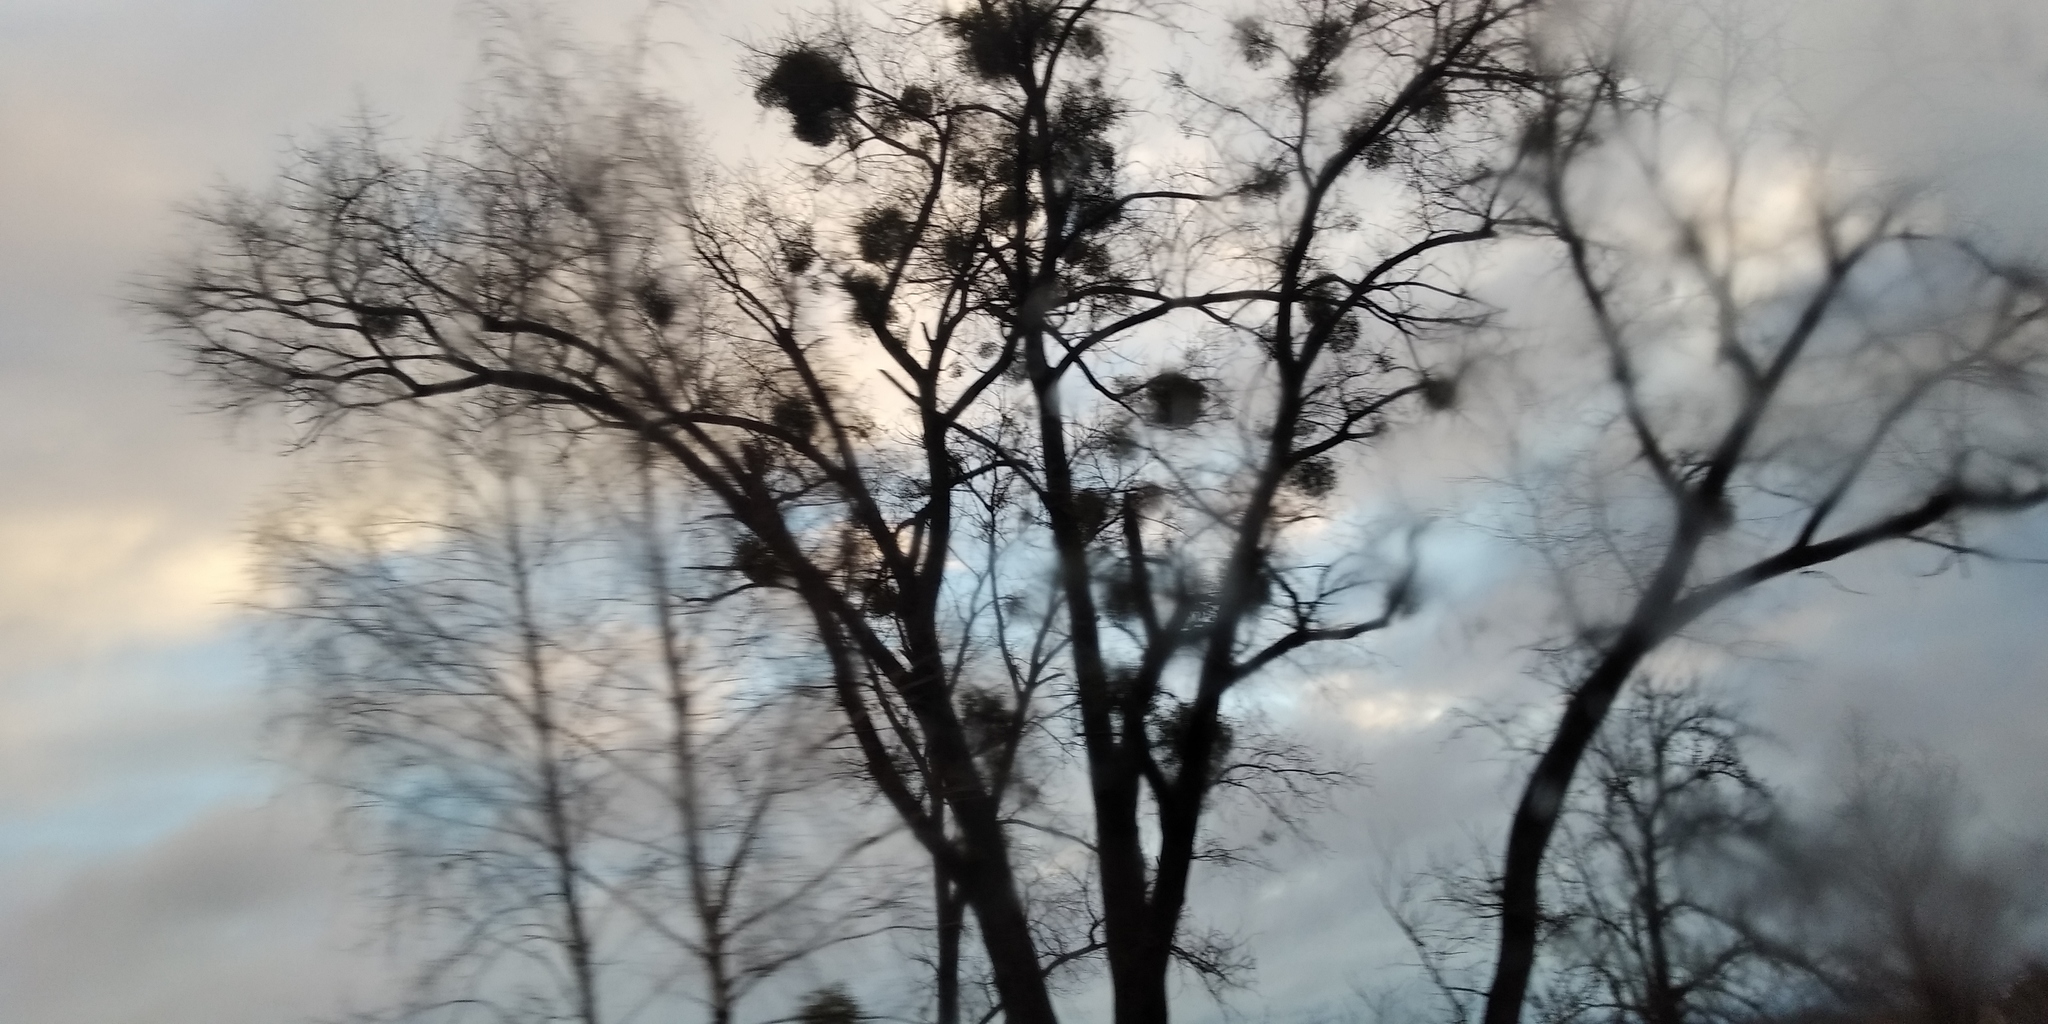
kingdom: Plantae
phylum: Tracheophyta
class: Magnoliopsida
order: Santalales
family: Viscaceae
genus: Viscum
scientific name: Viscum album
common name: Mistletoe
